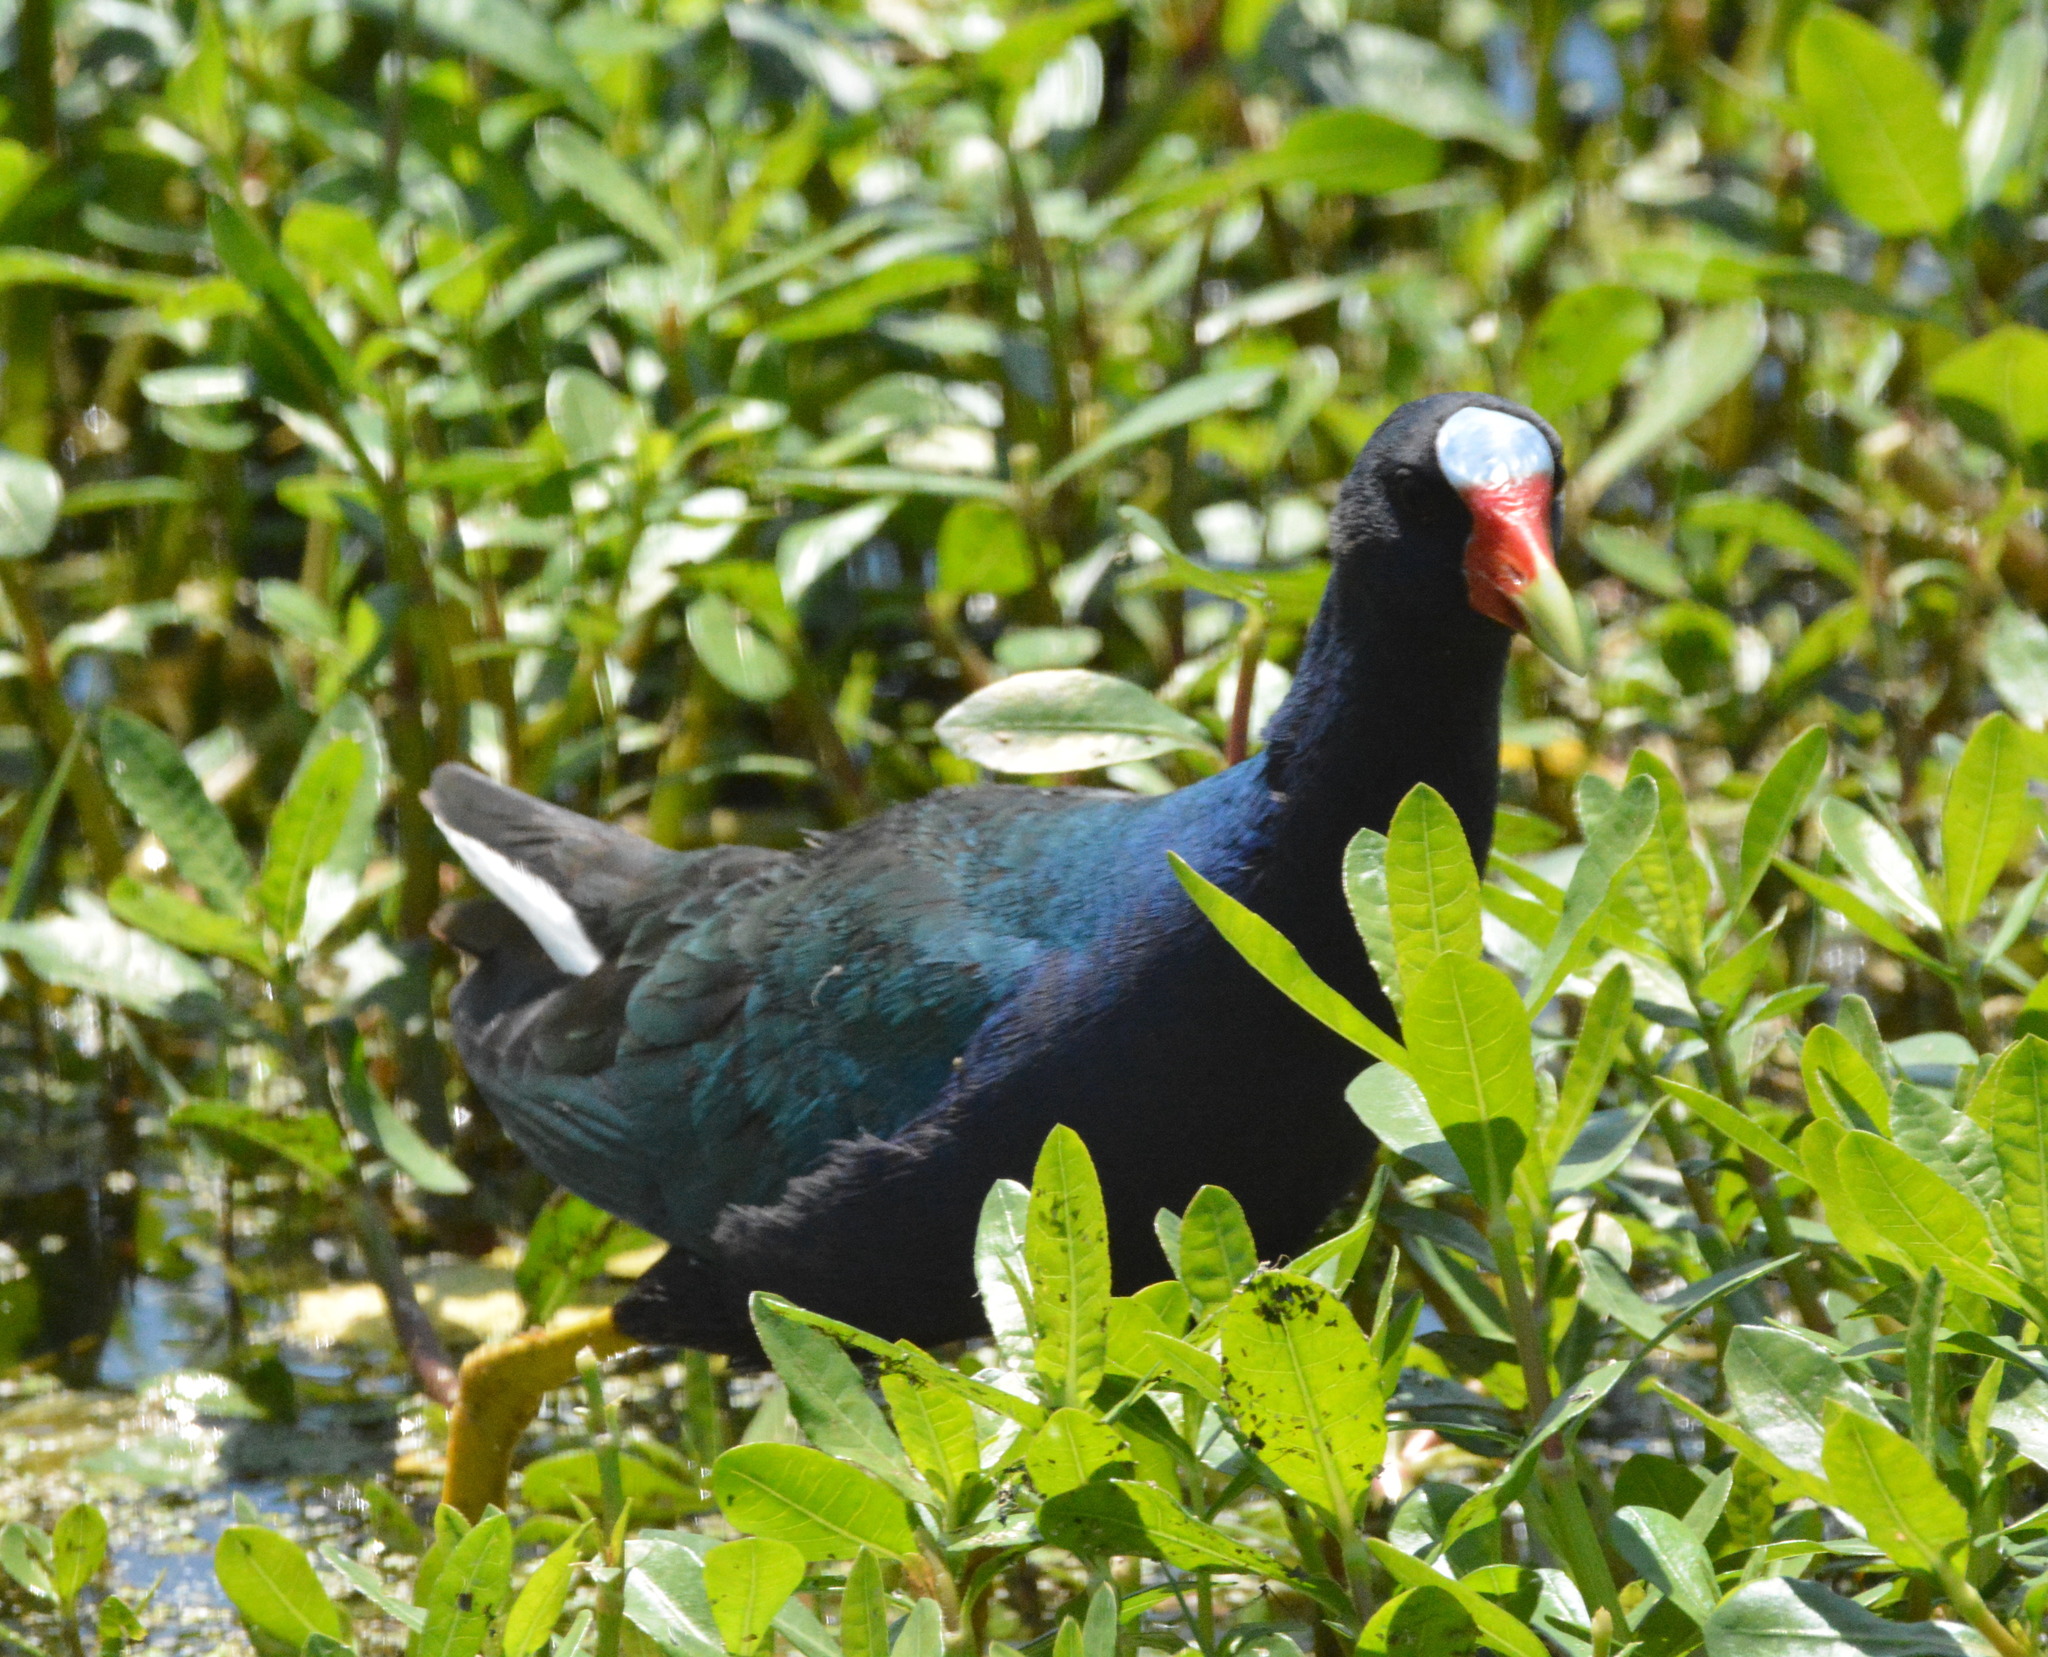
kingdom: Animalia
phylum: Chordata
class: Aves
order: Gruiformes
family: Rallidae
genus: Porphyrio
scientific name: Porphyrio martinica
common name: Purple gallinule
